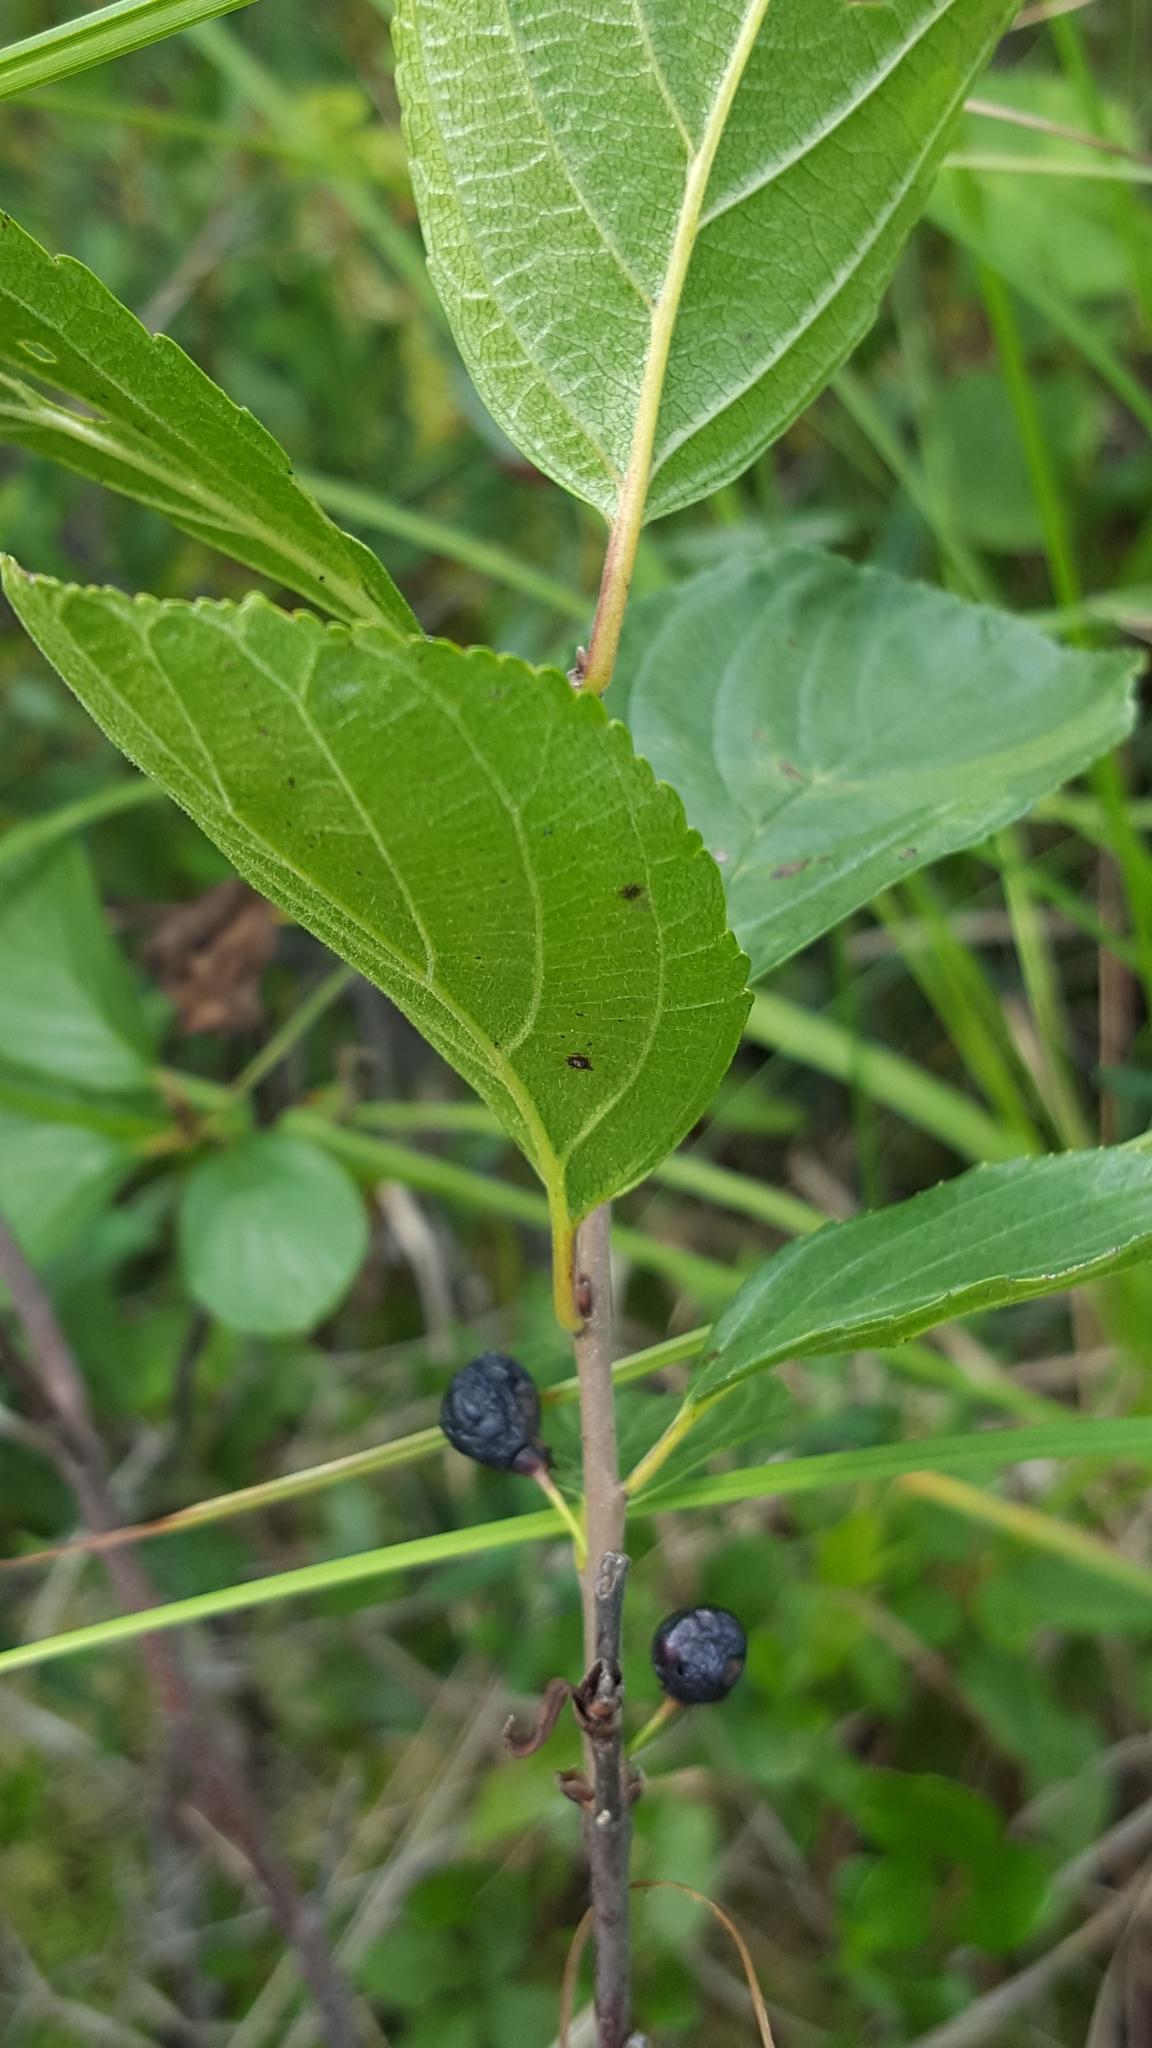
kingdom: Plantae
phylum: Tracheophyta
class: Magnoliopsida
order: Rosales
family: Rhamnaceae
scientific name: Rhamnaceae
